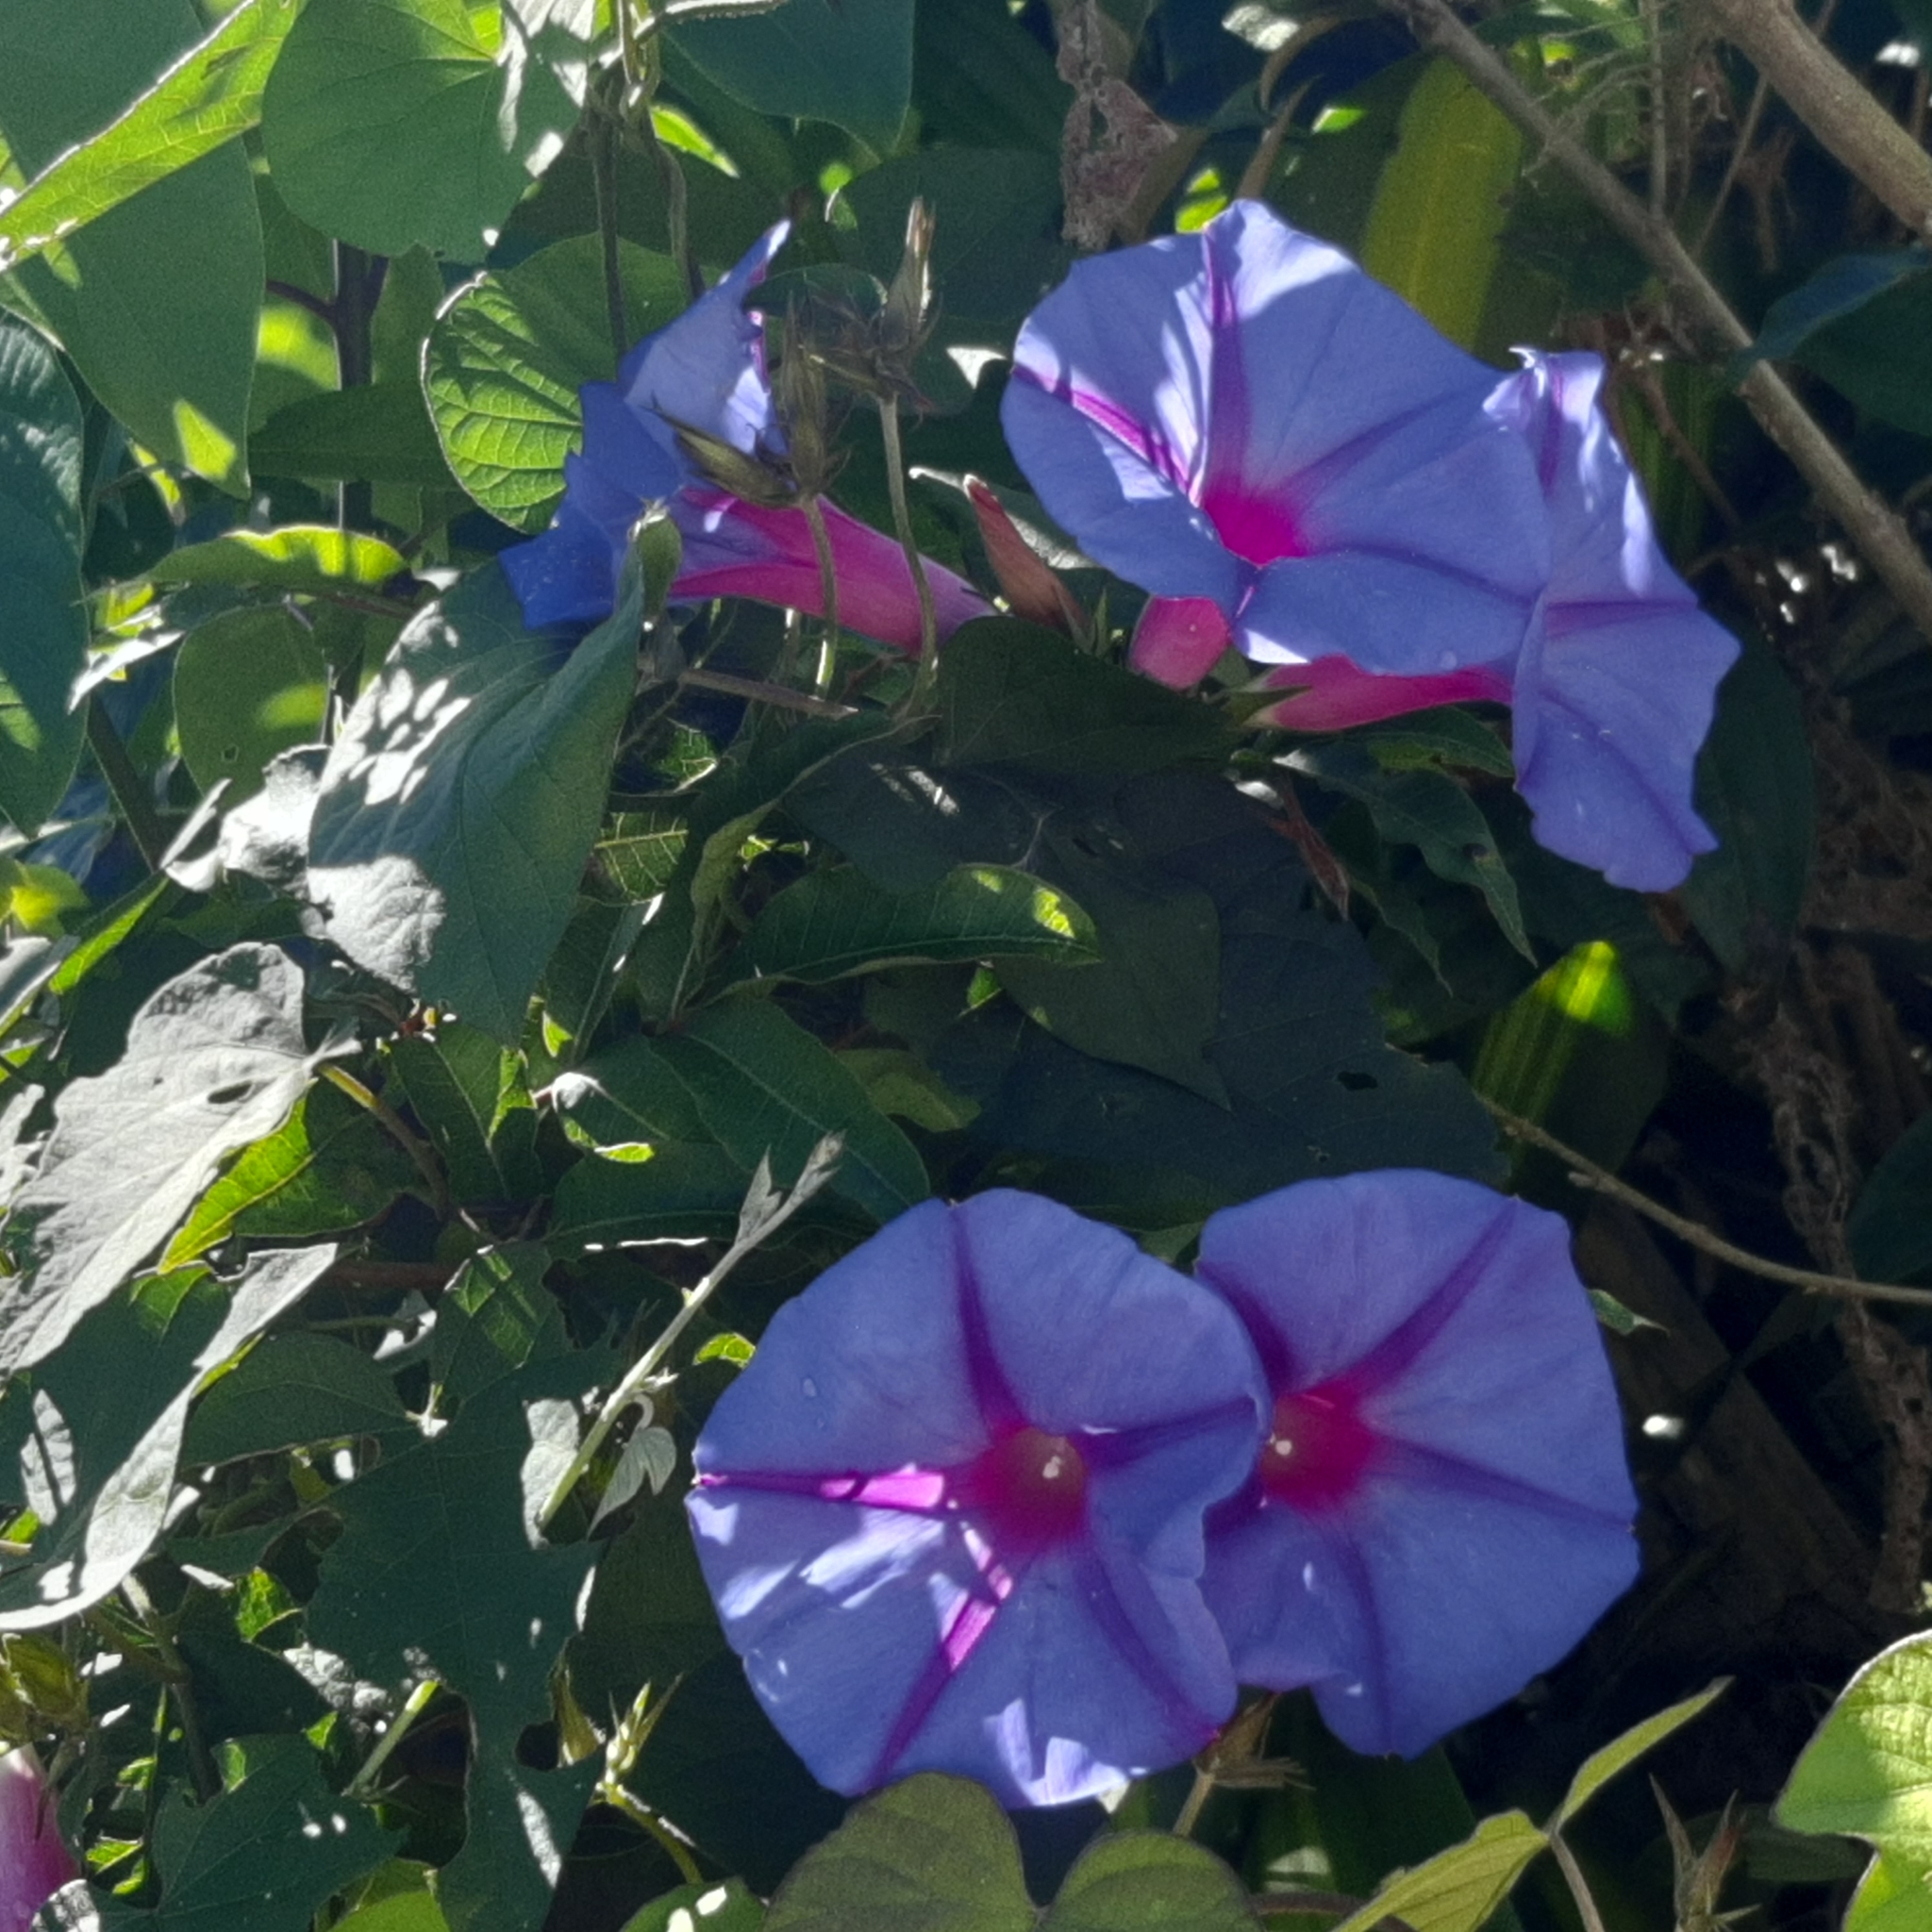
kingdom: Plantae
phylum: Tracheophyta
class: Magnoliopsida
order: Solanales
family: Convolvulaceae
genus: Ipomoea
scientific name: Ipomoea indica
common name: Blue dawnflower
